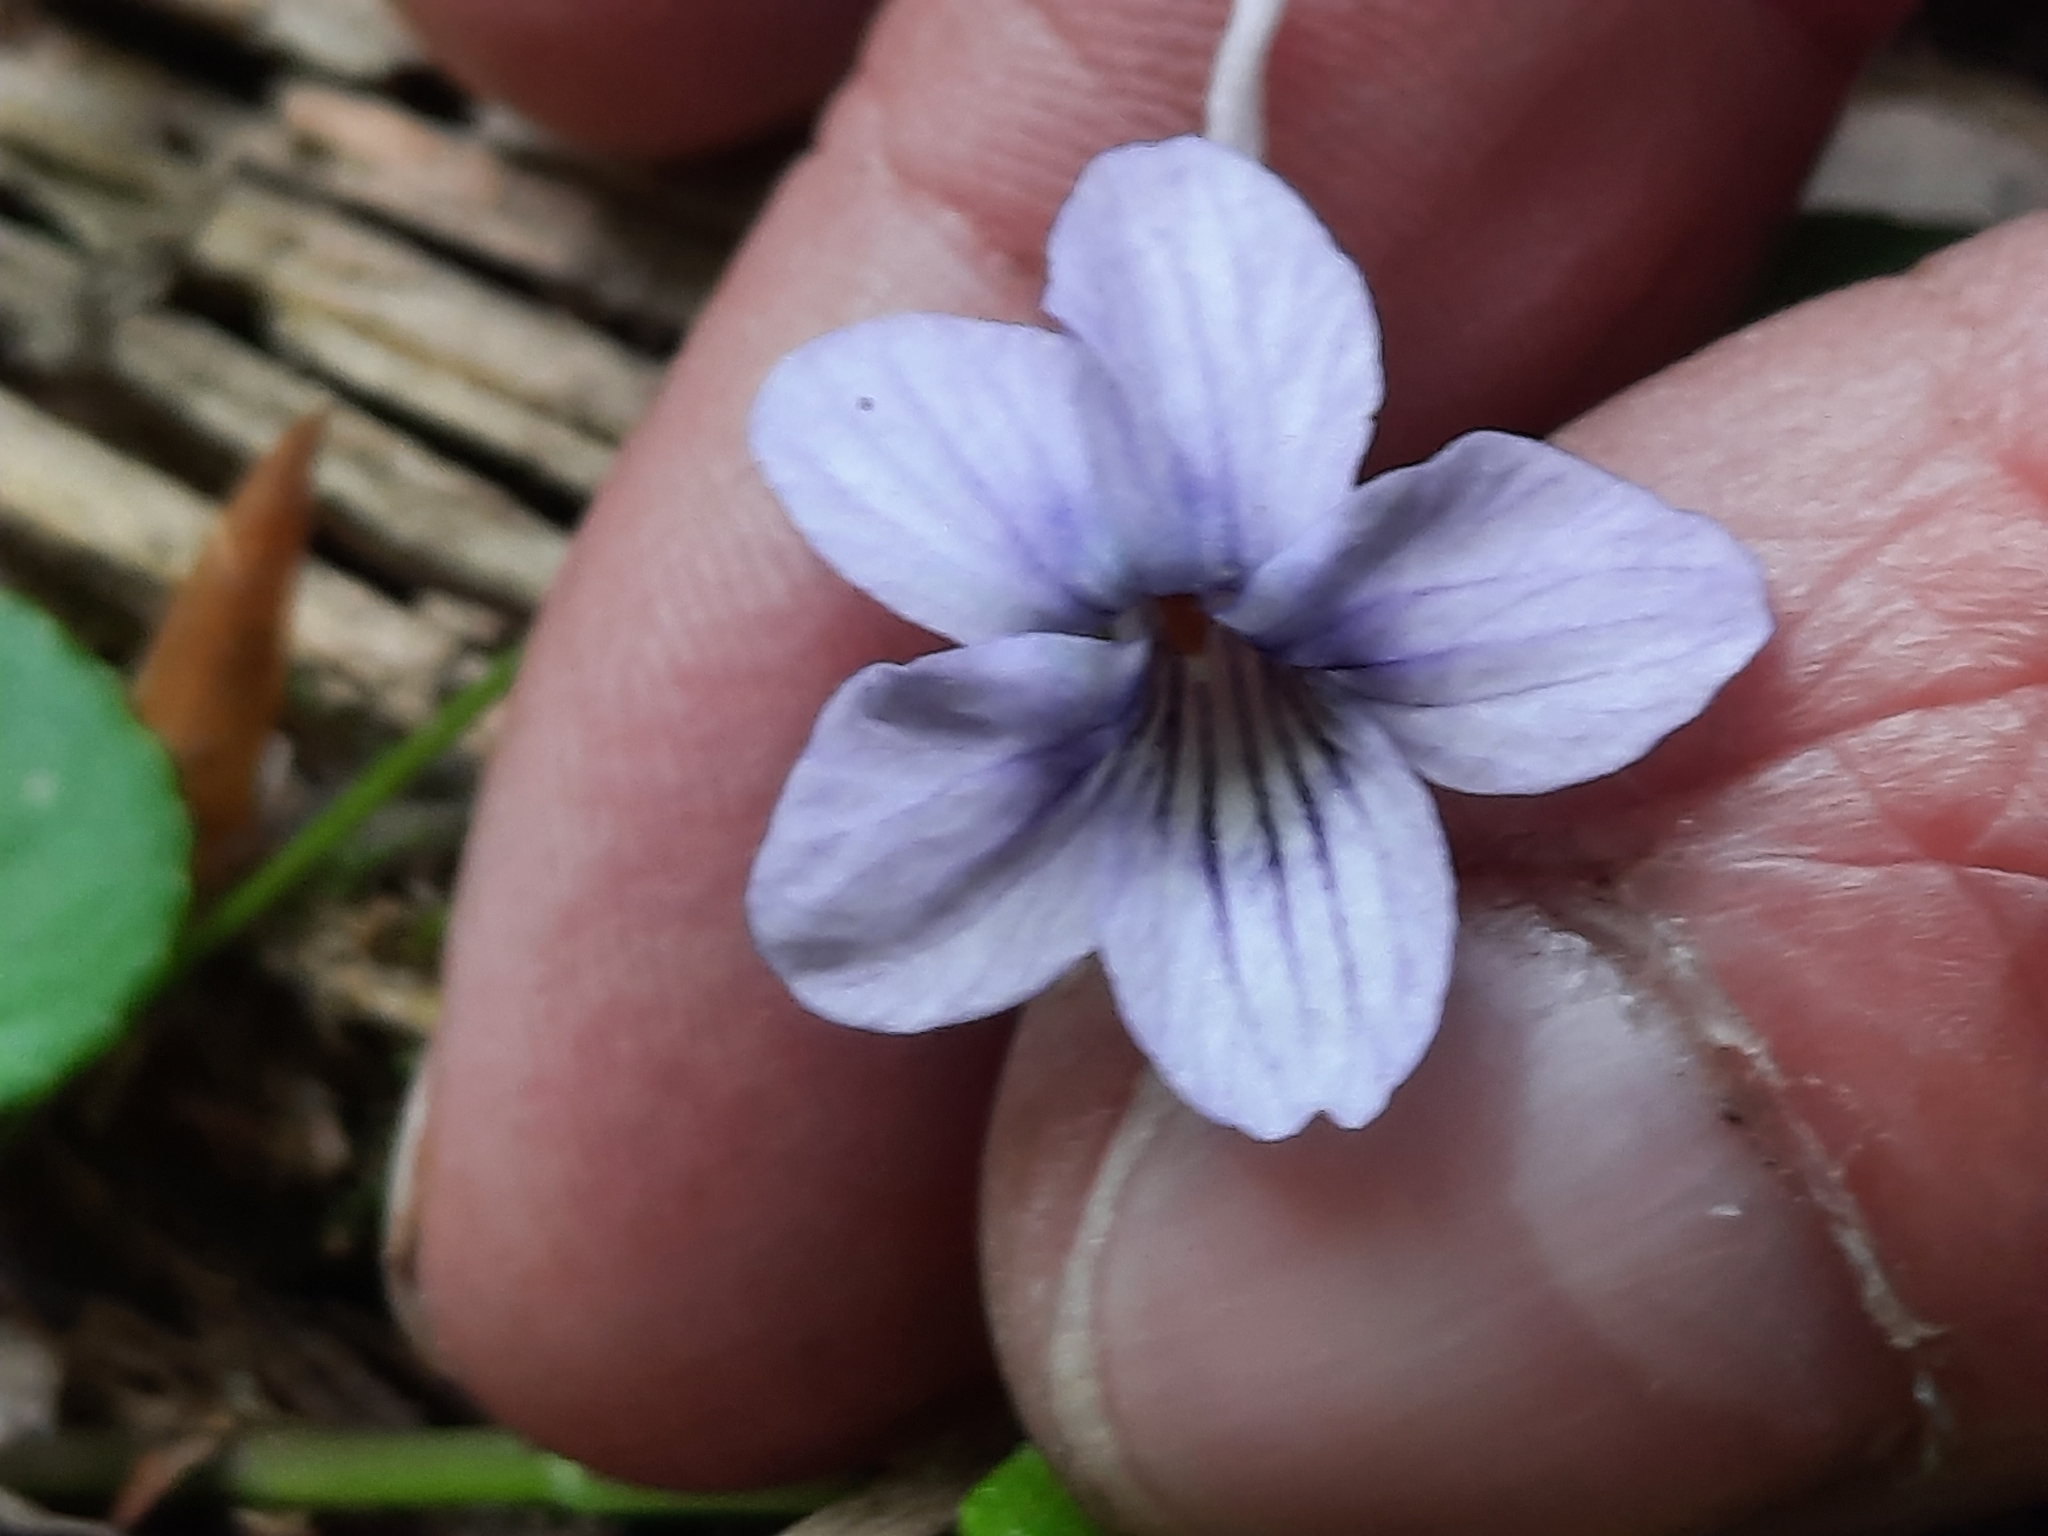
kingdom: Plantae
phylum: Tracheophyta
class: Magnoliopsida
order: Malpighiales
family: Violaceae
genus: Viola
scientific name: Viola rostrata
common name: Long-spur violet
